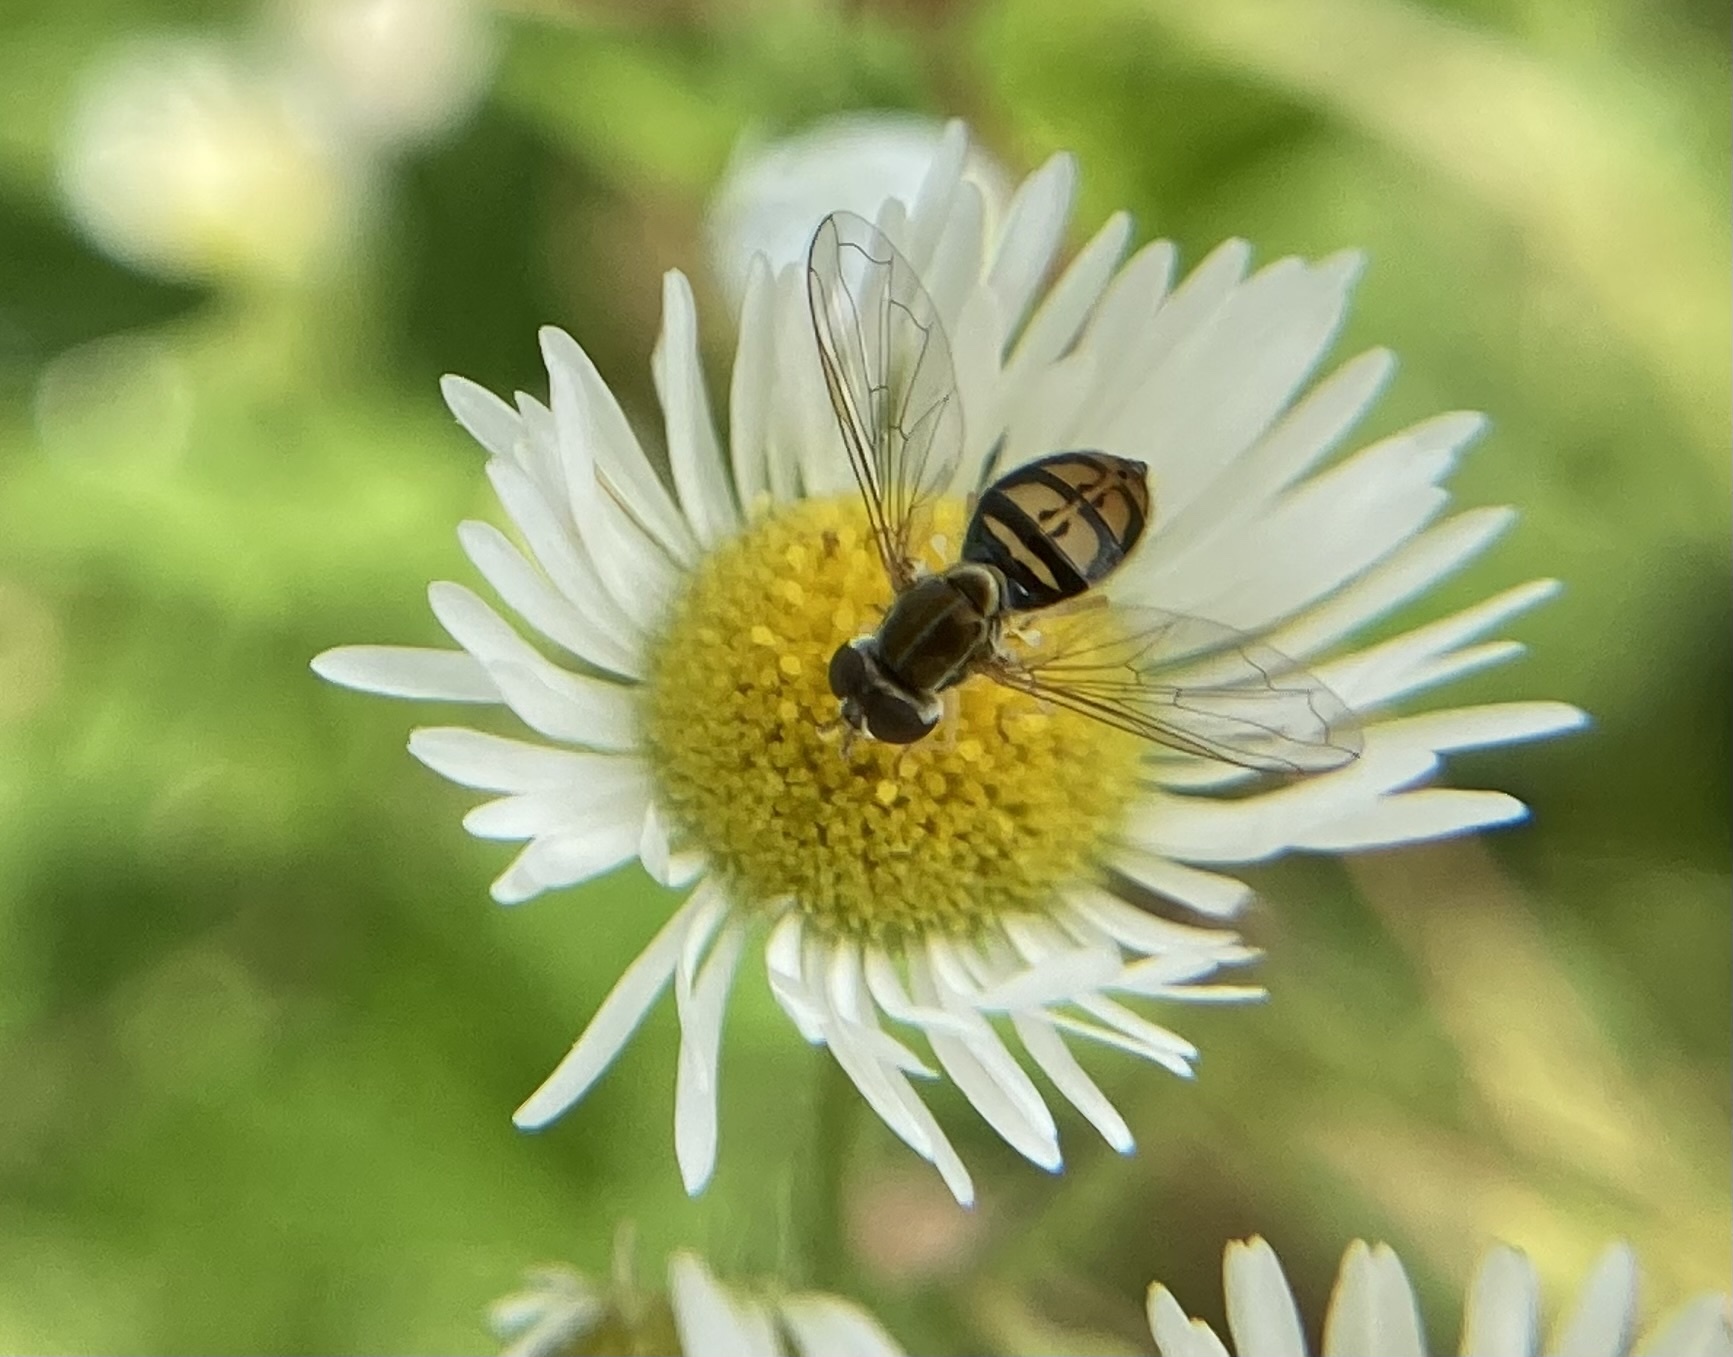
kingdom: Animalia
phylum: Arthropoda
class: Insecta
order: Diptera
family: Syrphidae
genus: Toxomerus
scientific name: Toxomerus marginatus
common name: Syrphid fly
